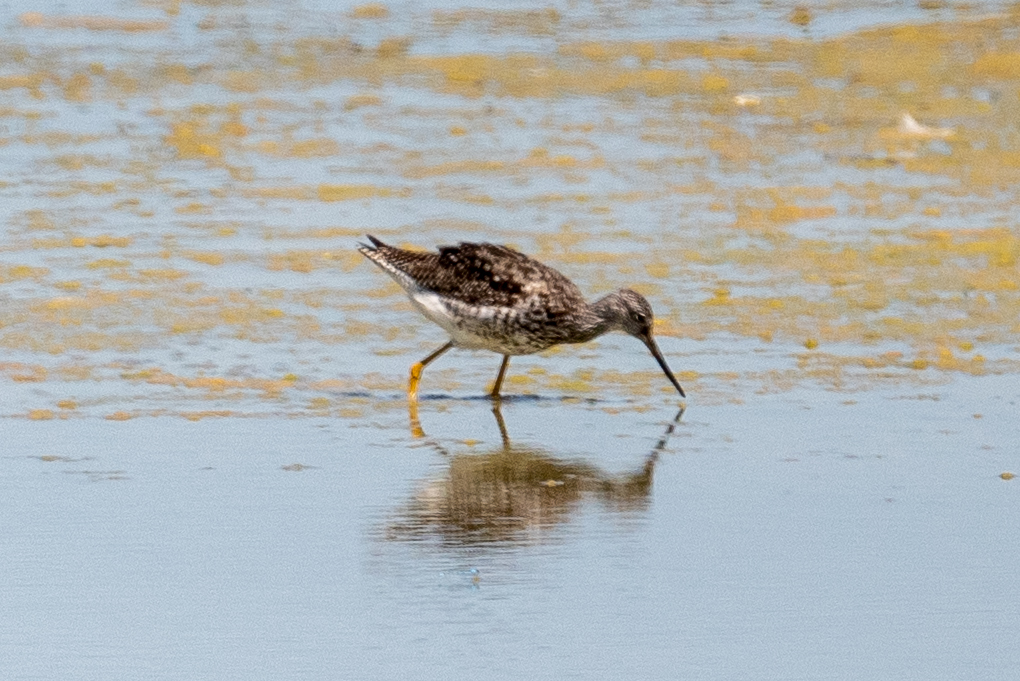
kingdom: Animalia
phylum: Chordata
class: Aves
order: Charadriiformes
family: Scolopacidae
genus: Tringa
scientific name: Tringa melanoleuca
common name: Greater yellowlegs
